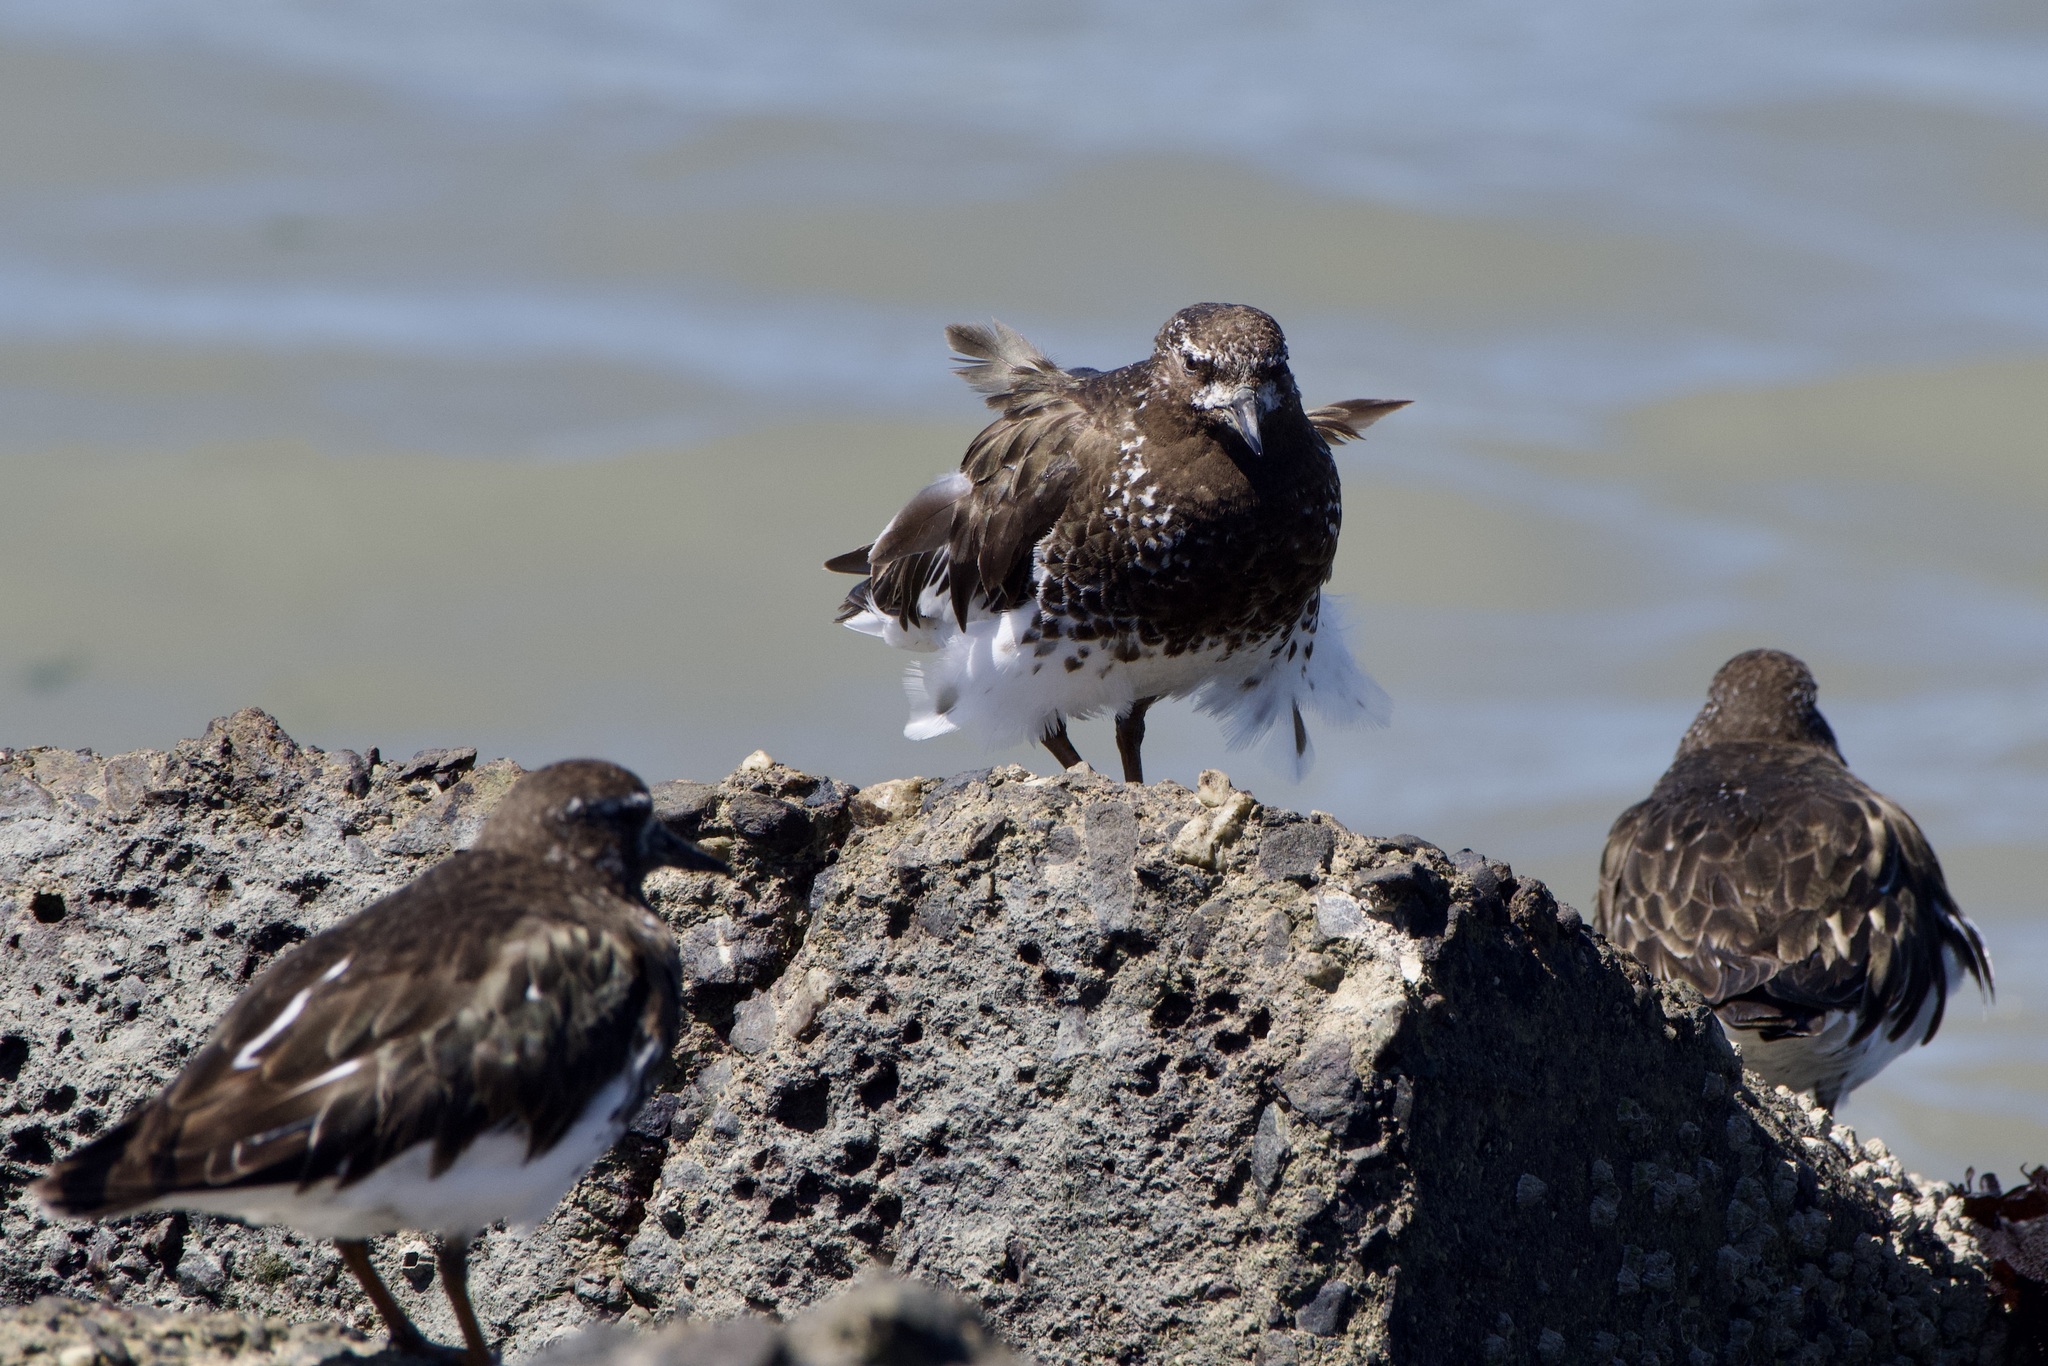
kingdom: Animalia
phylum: Chordata
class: Aves
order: Charadriiformes
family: Scolopacidae
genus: Arenaria
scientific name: Arenaria melanocephala
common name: Black turnstone
